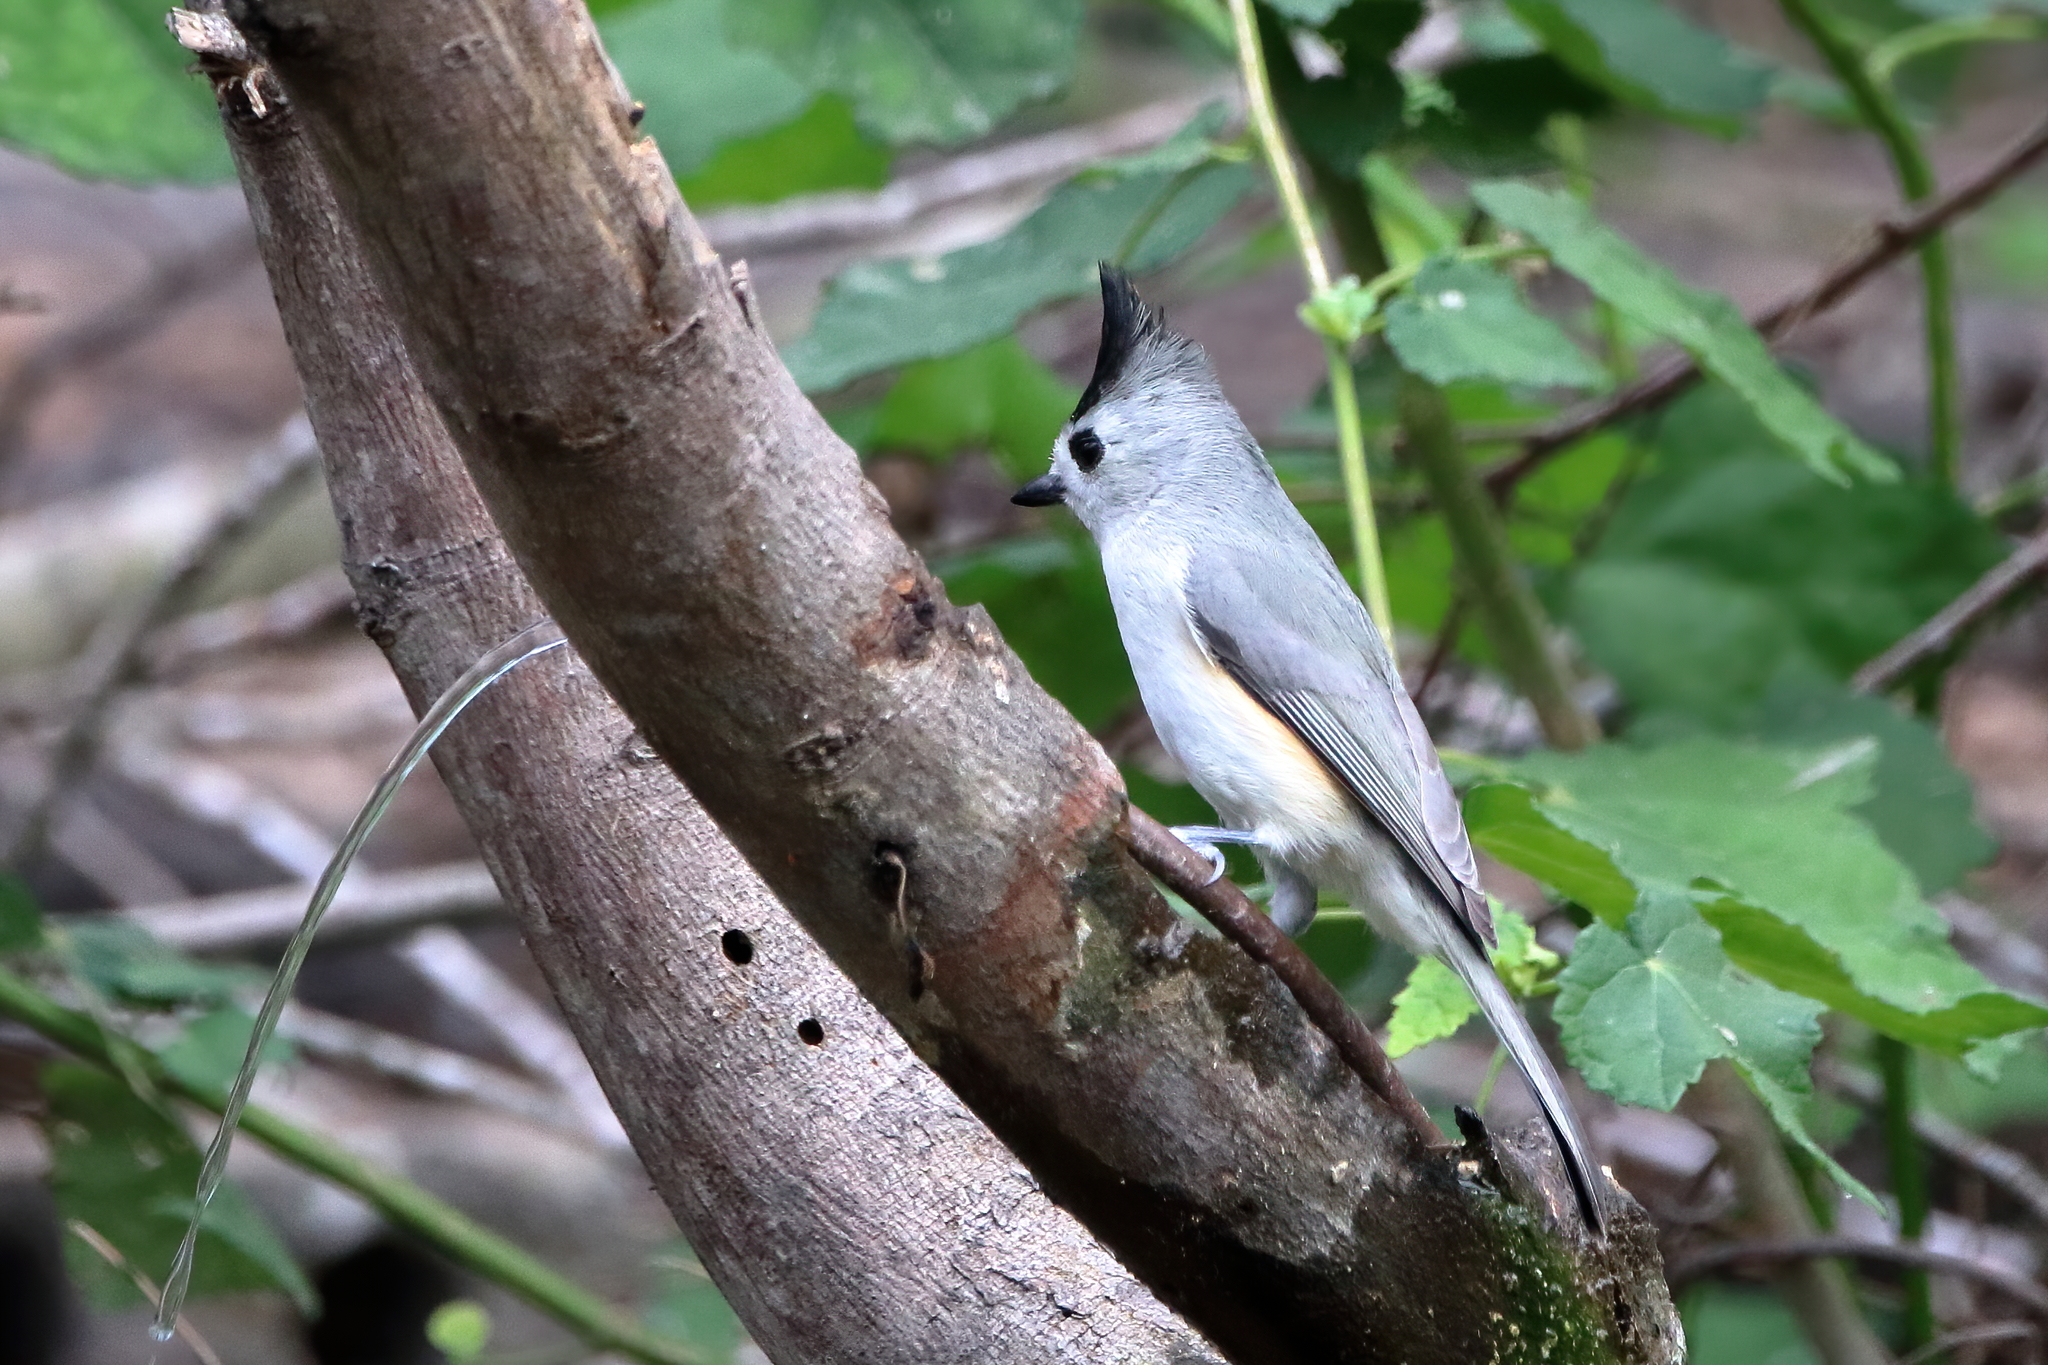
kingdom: Animalia
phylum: Chordata
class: Aves
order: Passeriformes
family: Paridae
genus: Baeolophus
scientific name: Baeolophus atricristatus
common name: Black-crested titmouse
